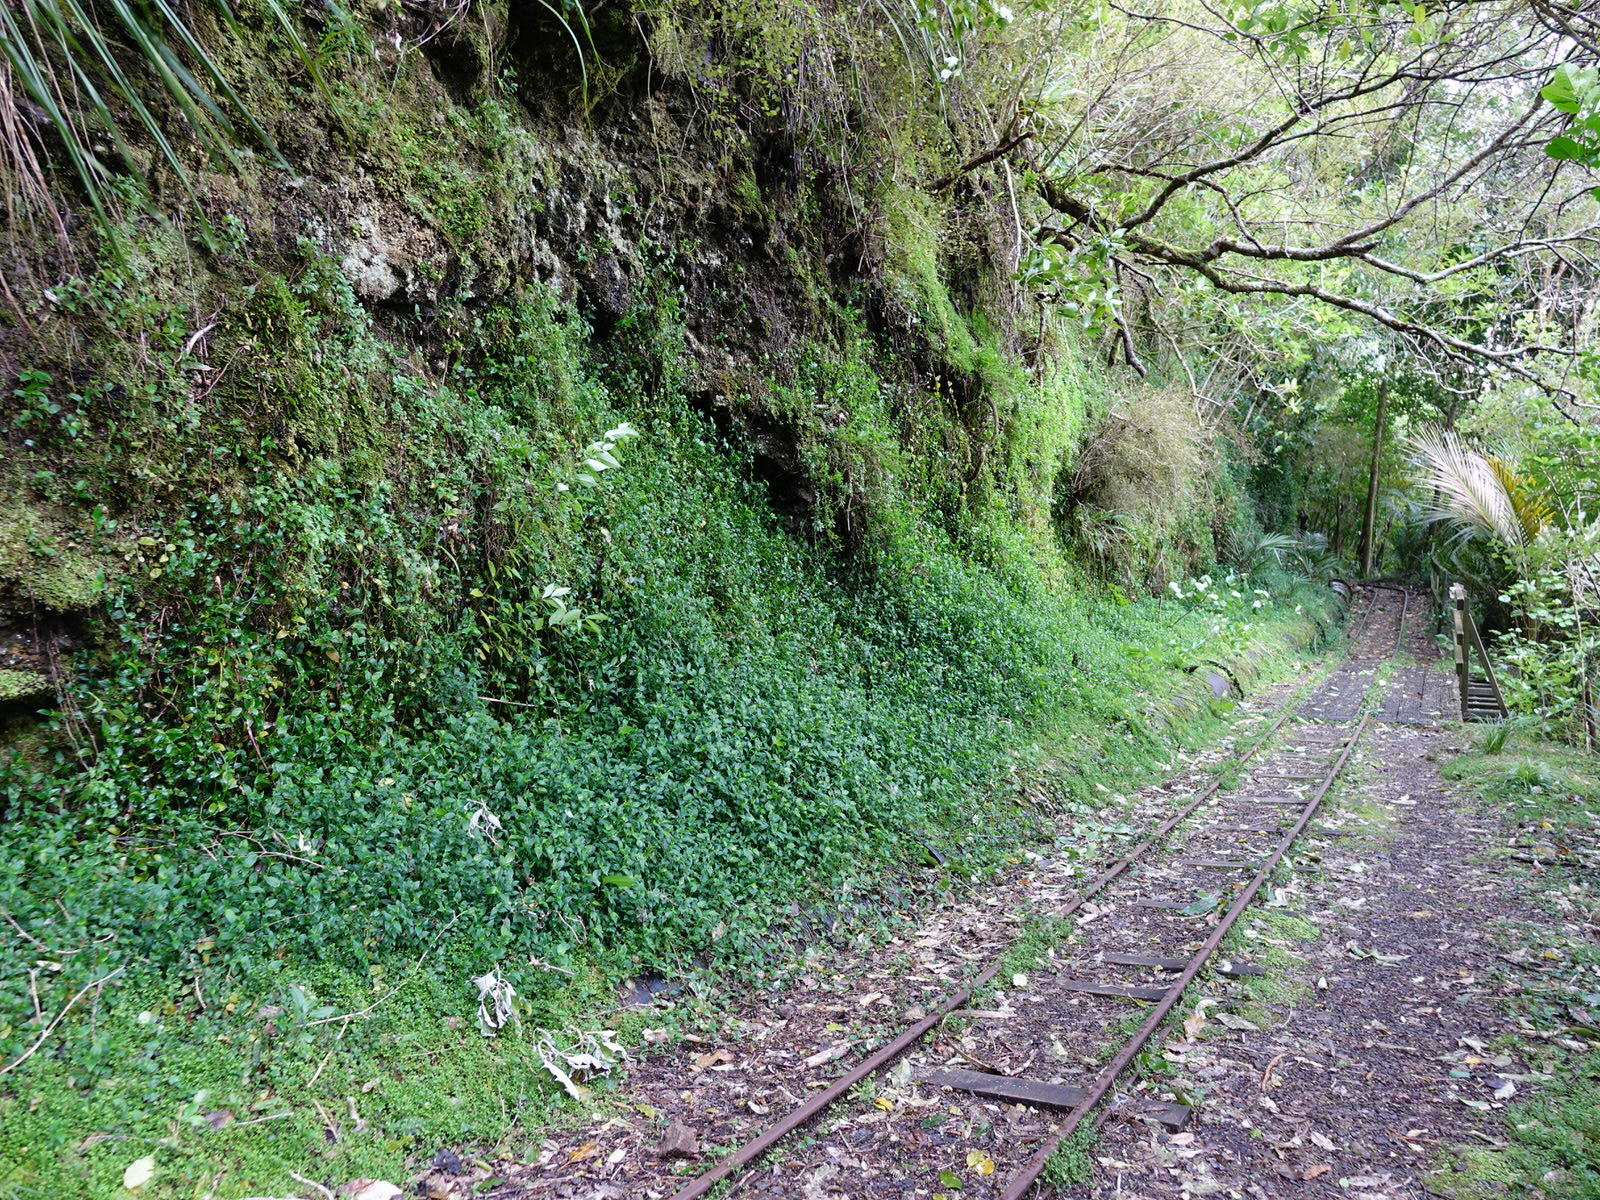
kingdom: Plantae
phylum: Tracheophyta
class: Liliopsida
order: Commelinales
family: Commelinaceae
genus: Tradescantia
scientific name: Tradescantia fluminensis
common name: Wandering-jew
